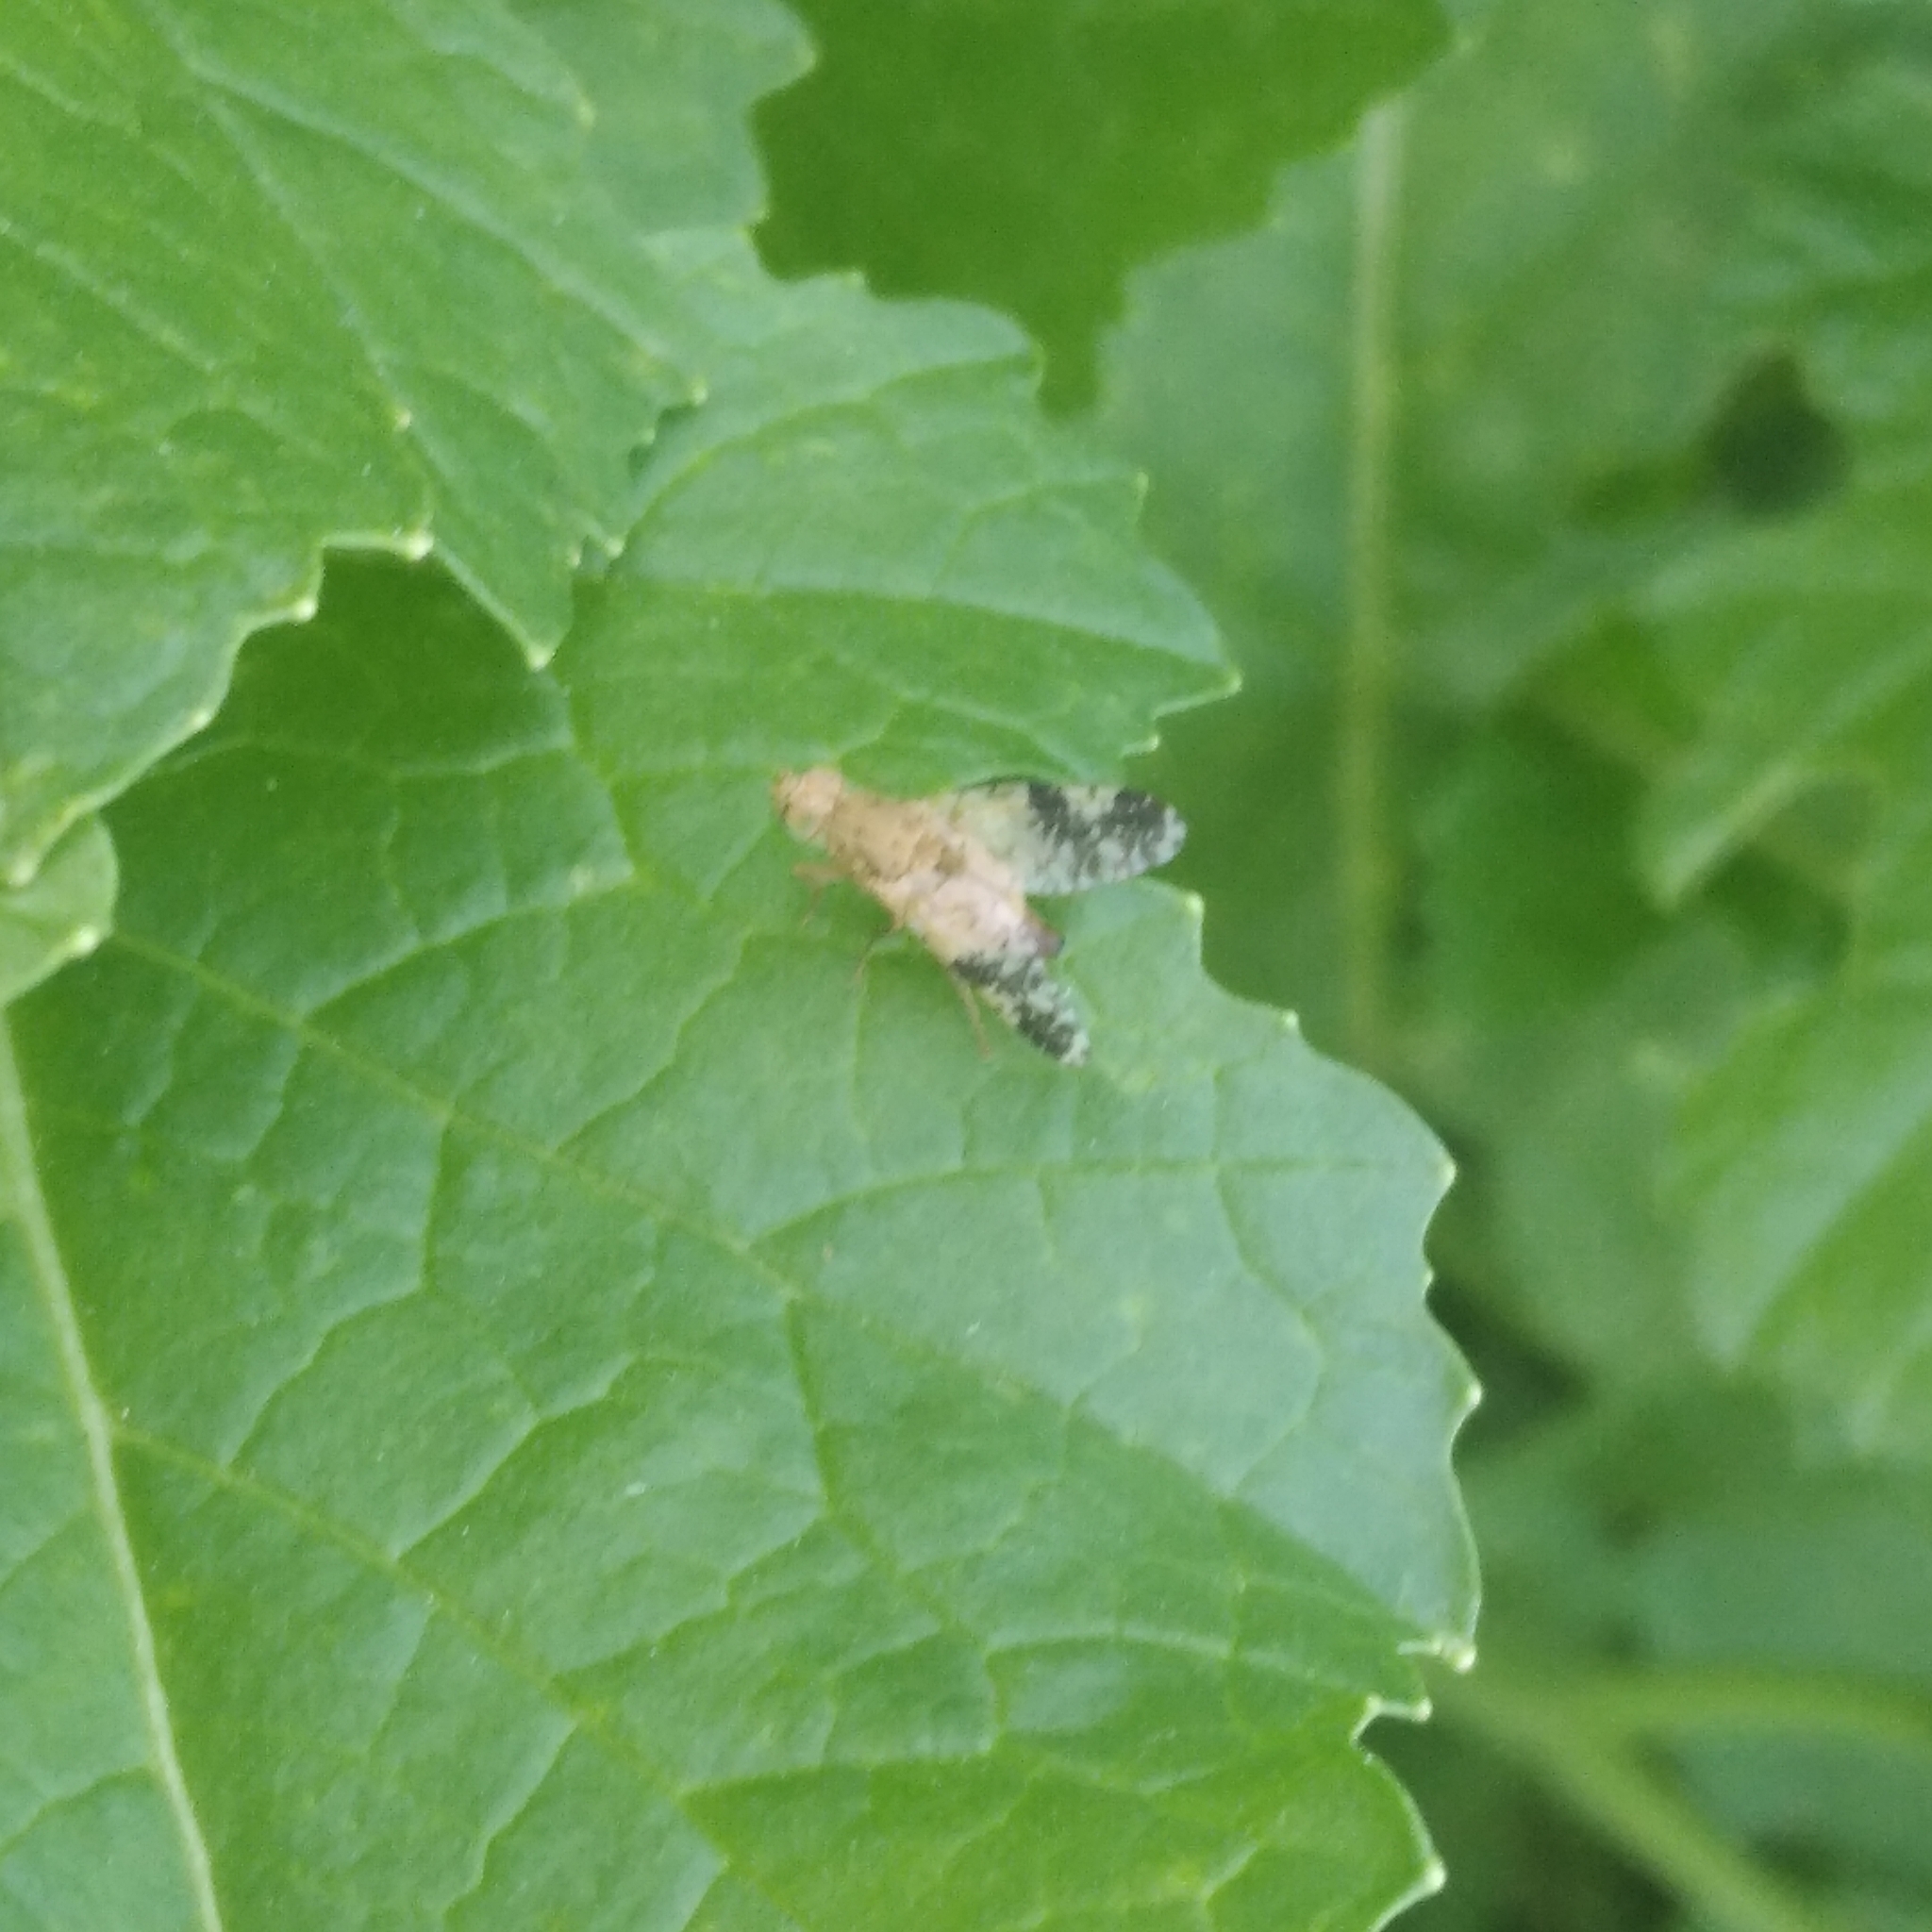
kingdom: Animalia
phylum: Arthropoda
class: Insecta
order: Diptera
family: Tephritidae
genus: Tephritis
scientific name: Tephritis bardanae
